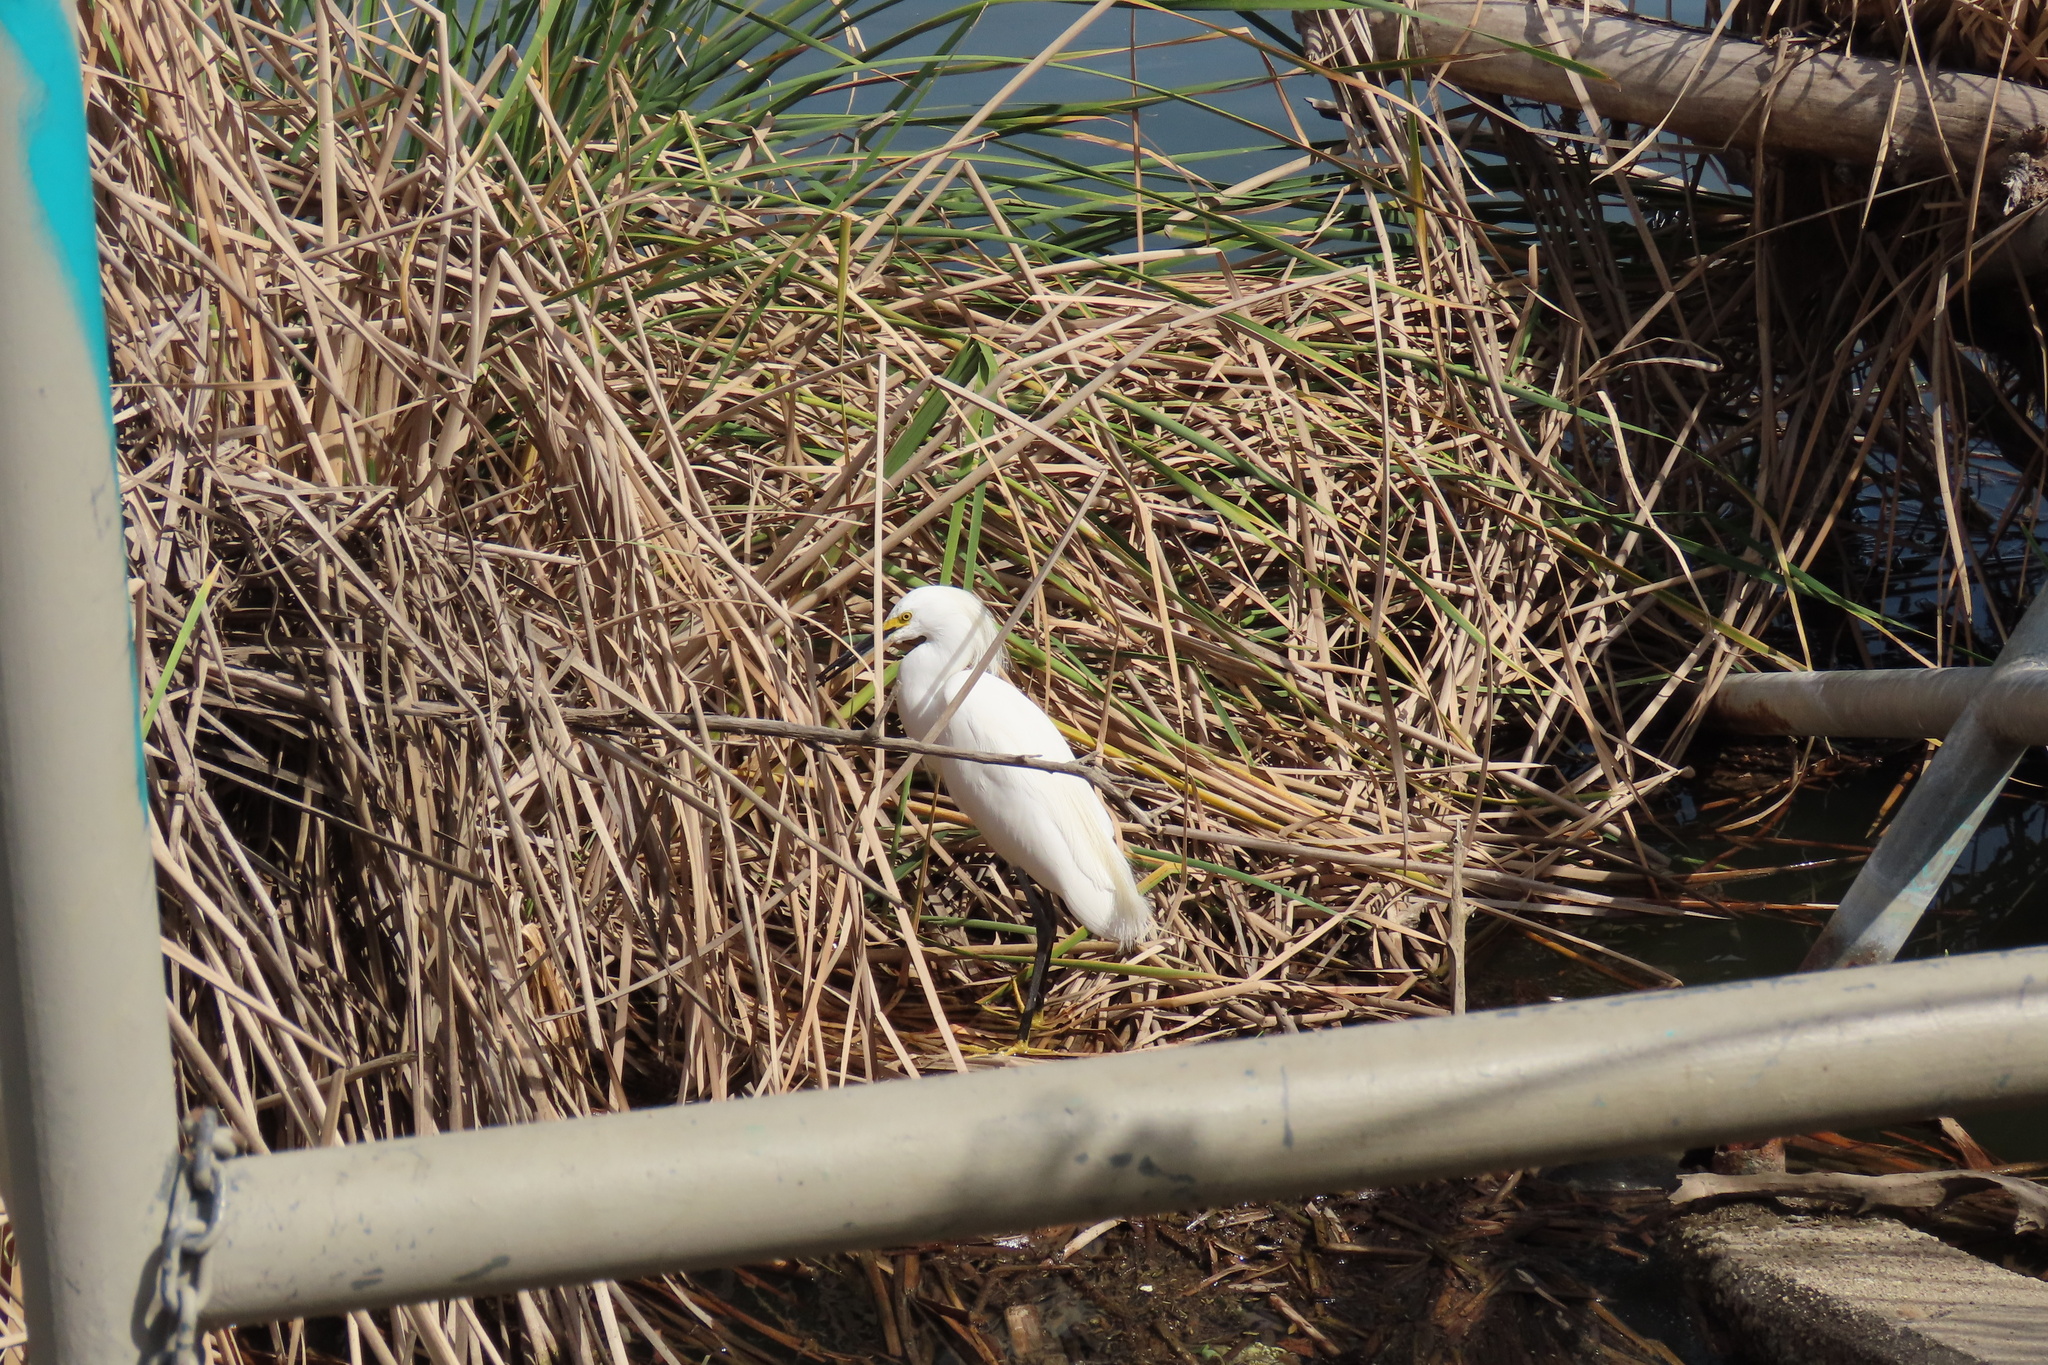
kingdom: Animalia
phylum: Chordata
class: Aves
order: Pelecaniformes
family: Ardeidae
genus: Egretta
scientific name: Egretta thula
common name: Snowy egret
